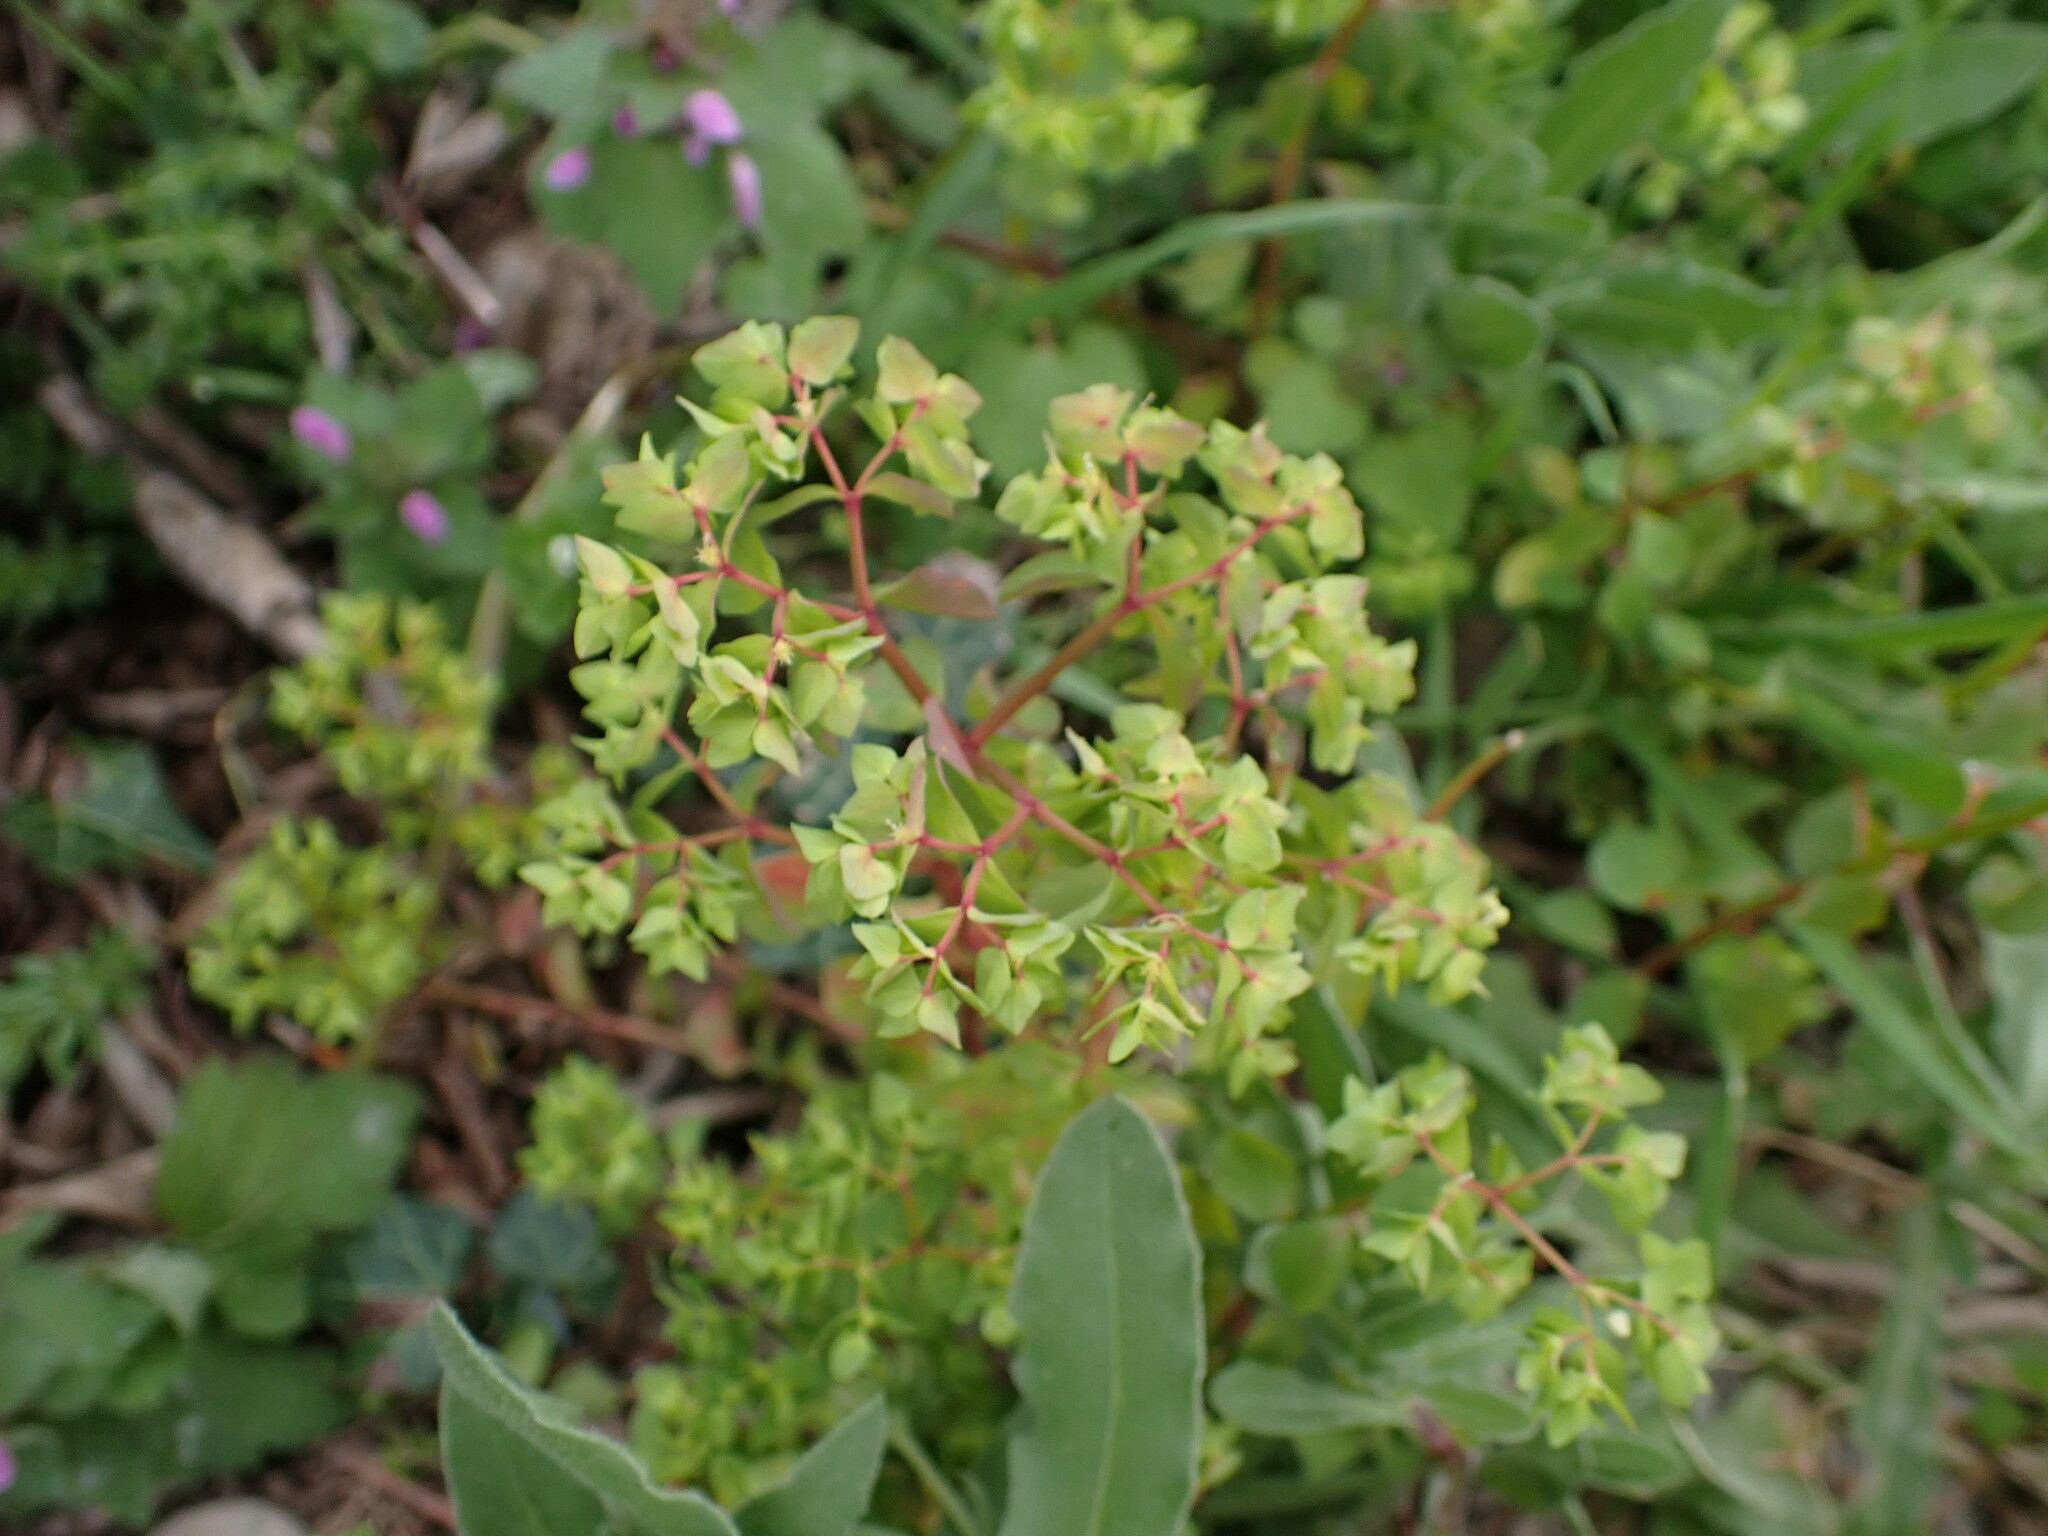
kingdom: Plantae
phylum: Tracheophyta
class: Magnoliopsida
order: Malpighiales
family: Euphorbiaceae
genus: Euphorbia
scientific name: Euphorbia peplus
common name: Petty spurge
